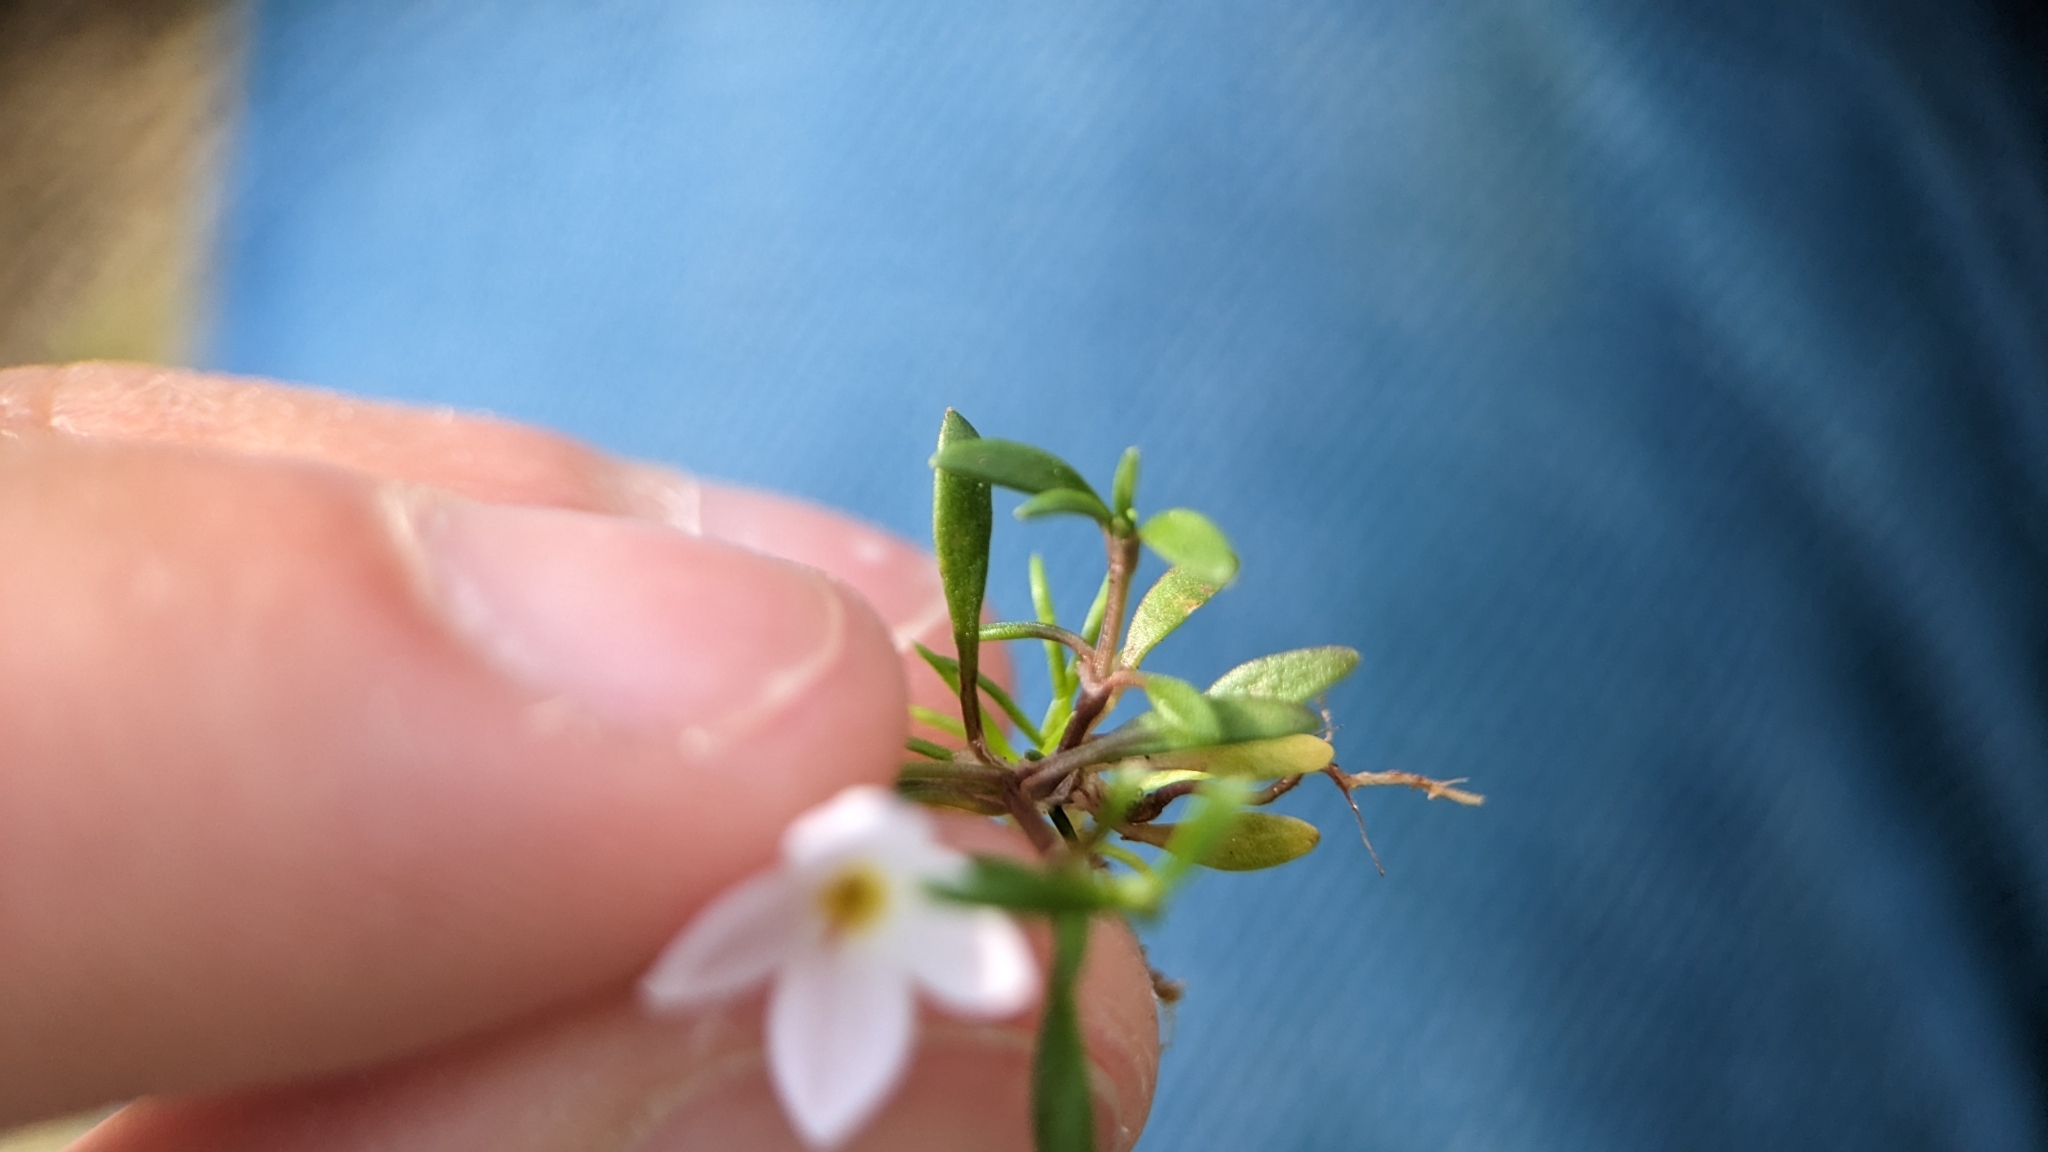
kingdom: Plantae
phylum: Tracheophyta
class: Magnoliopsida
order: Gentianales
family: Rubiaceae
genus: Houstonia
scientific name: Houstonia rosea
